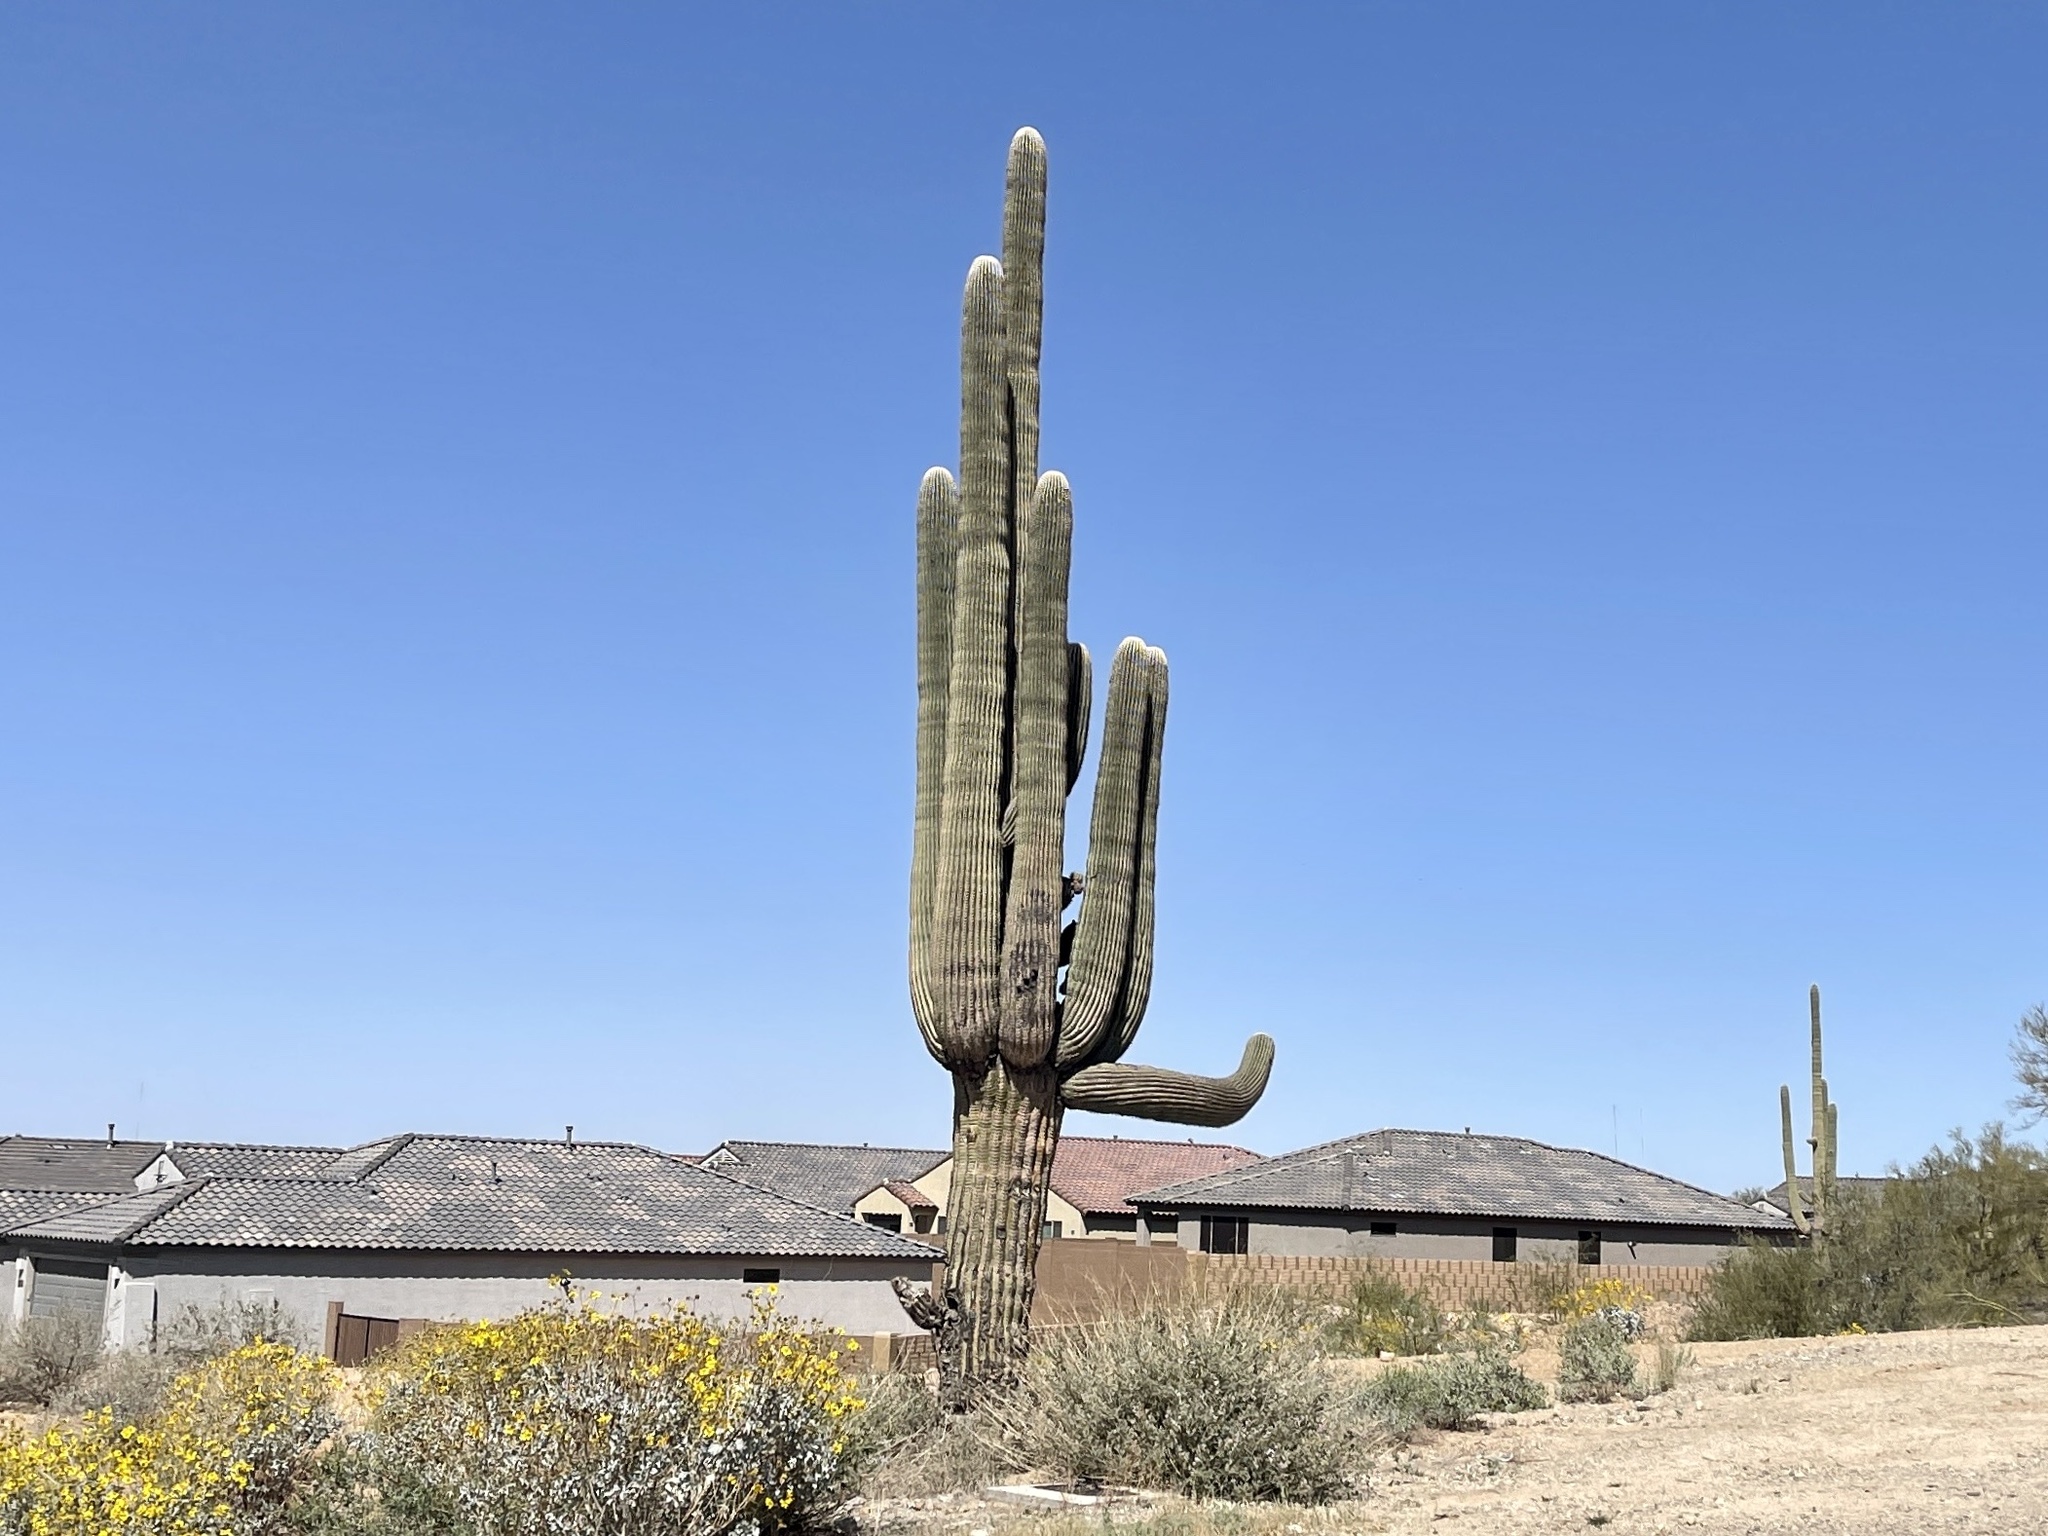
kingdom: Plantae
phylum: Tracheophyta
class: Magnoliopsida
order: Caryophyllales
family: Cactaceae
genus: Carnegiea
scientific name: Carnegiea gigantea
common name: Saguaro
